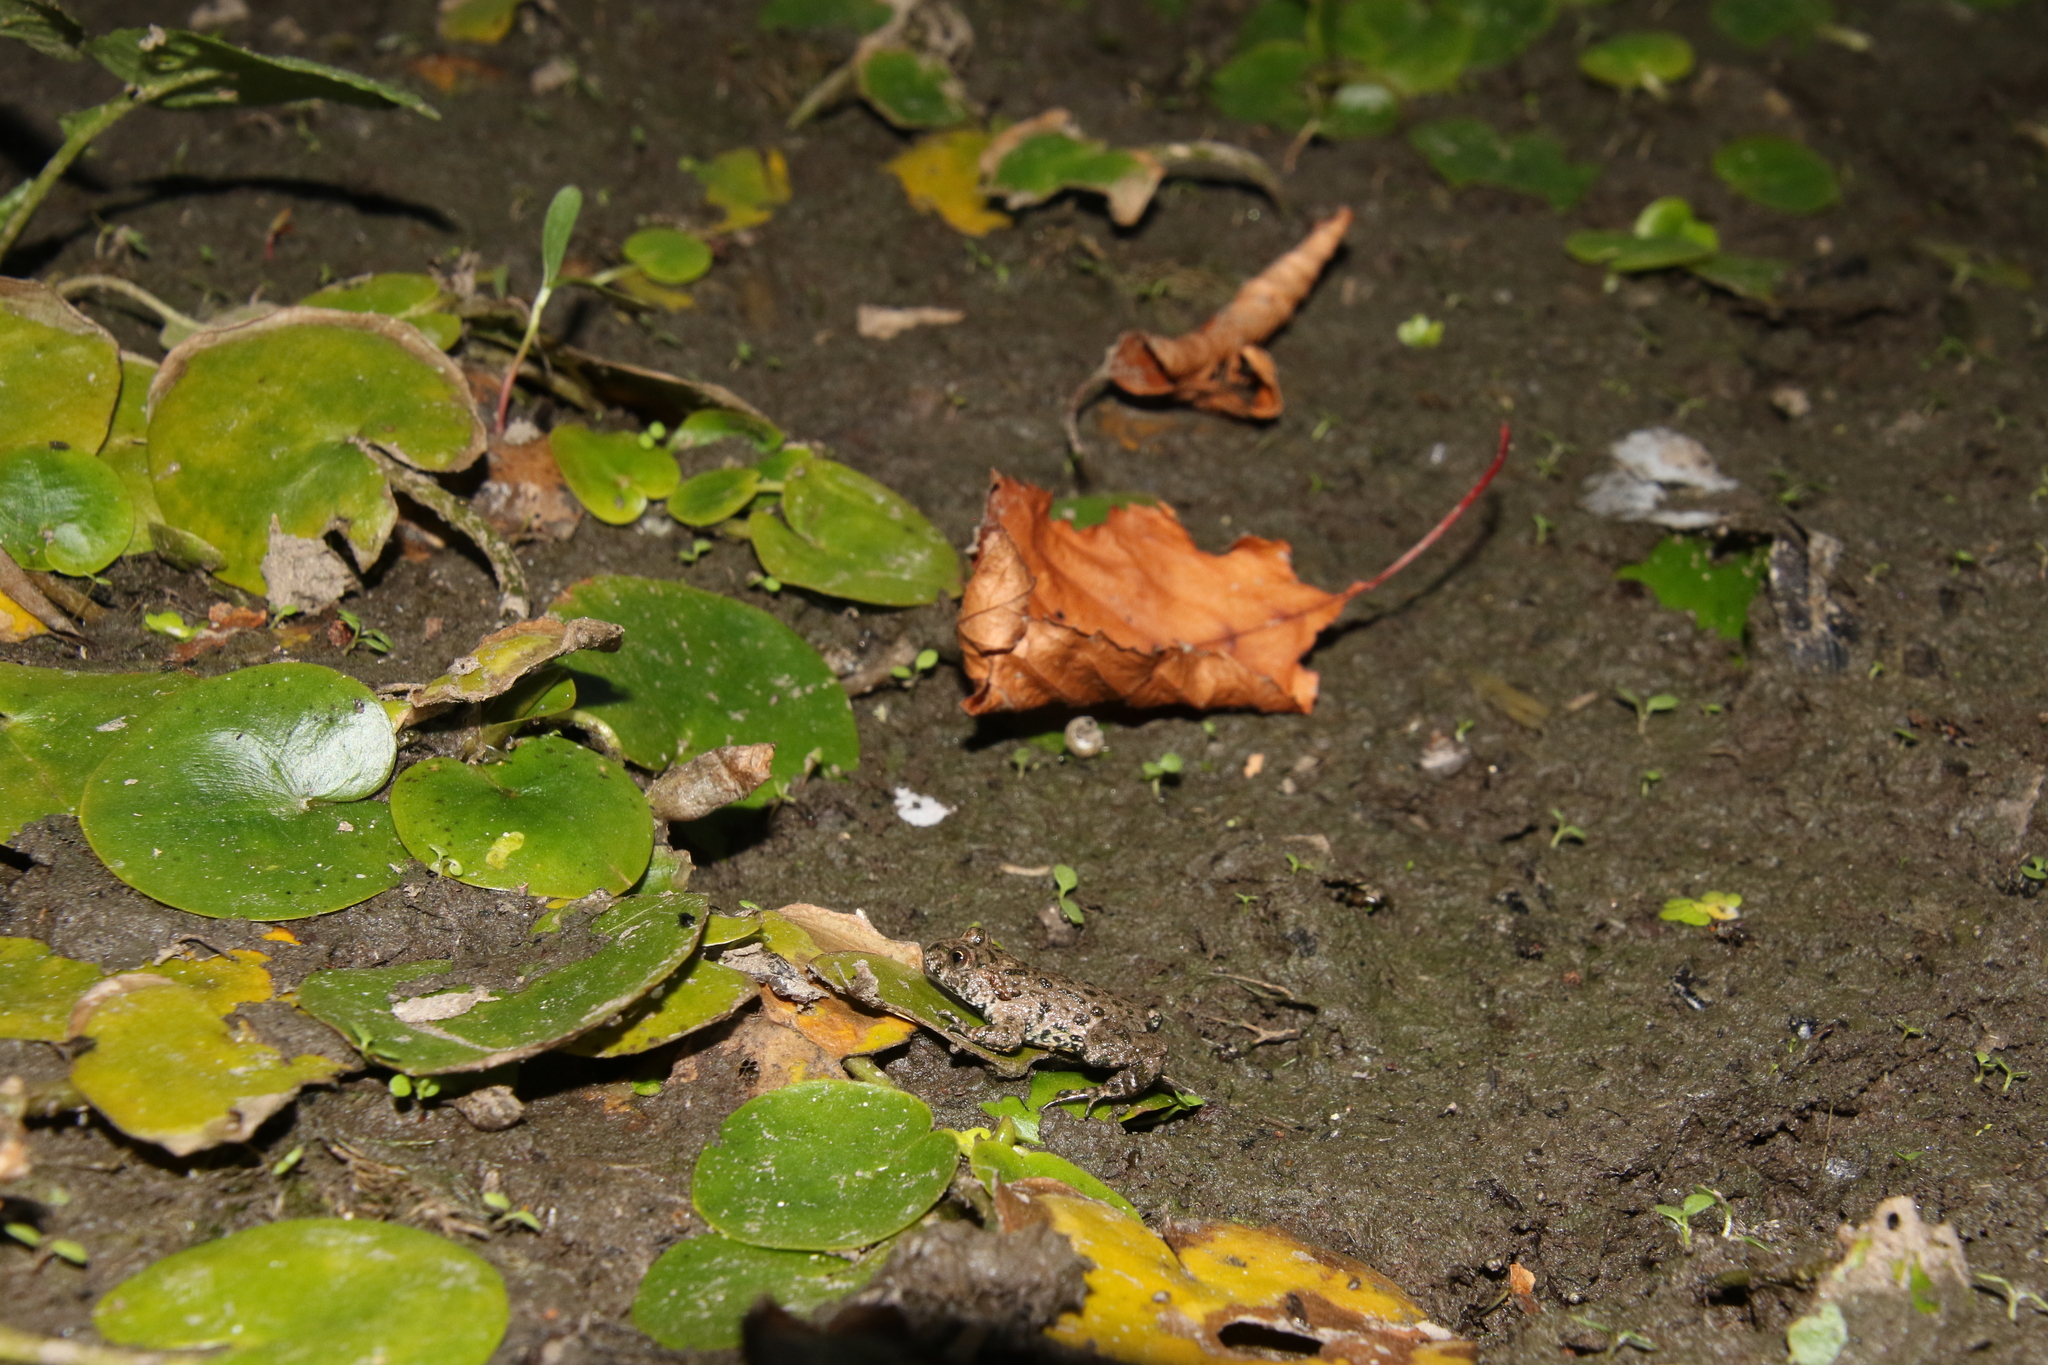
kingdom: Animalia
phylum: Chordata
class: Amphibia
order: Anura
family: Bombinatoridae
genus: Bombina
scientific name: Bombina bombina
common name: Fire-bellied toad
